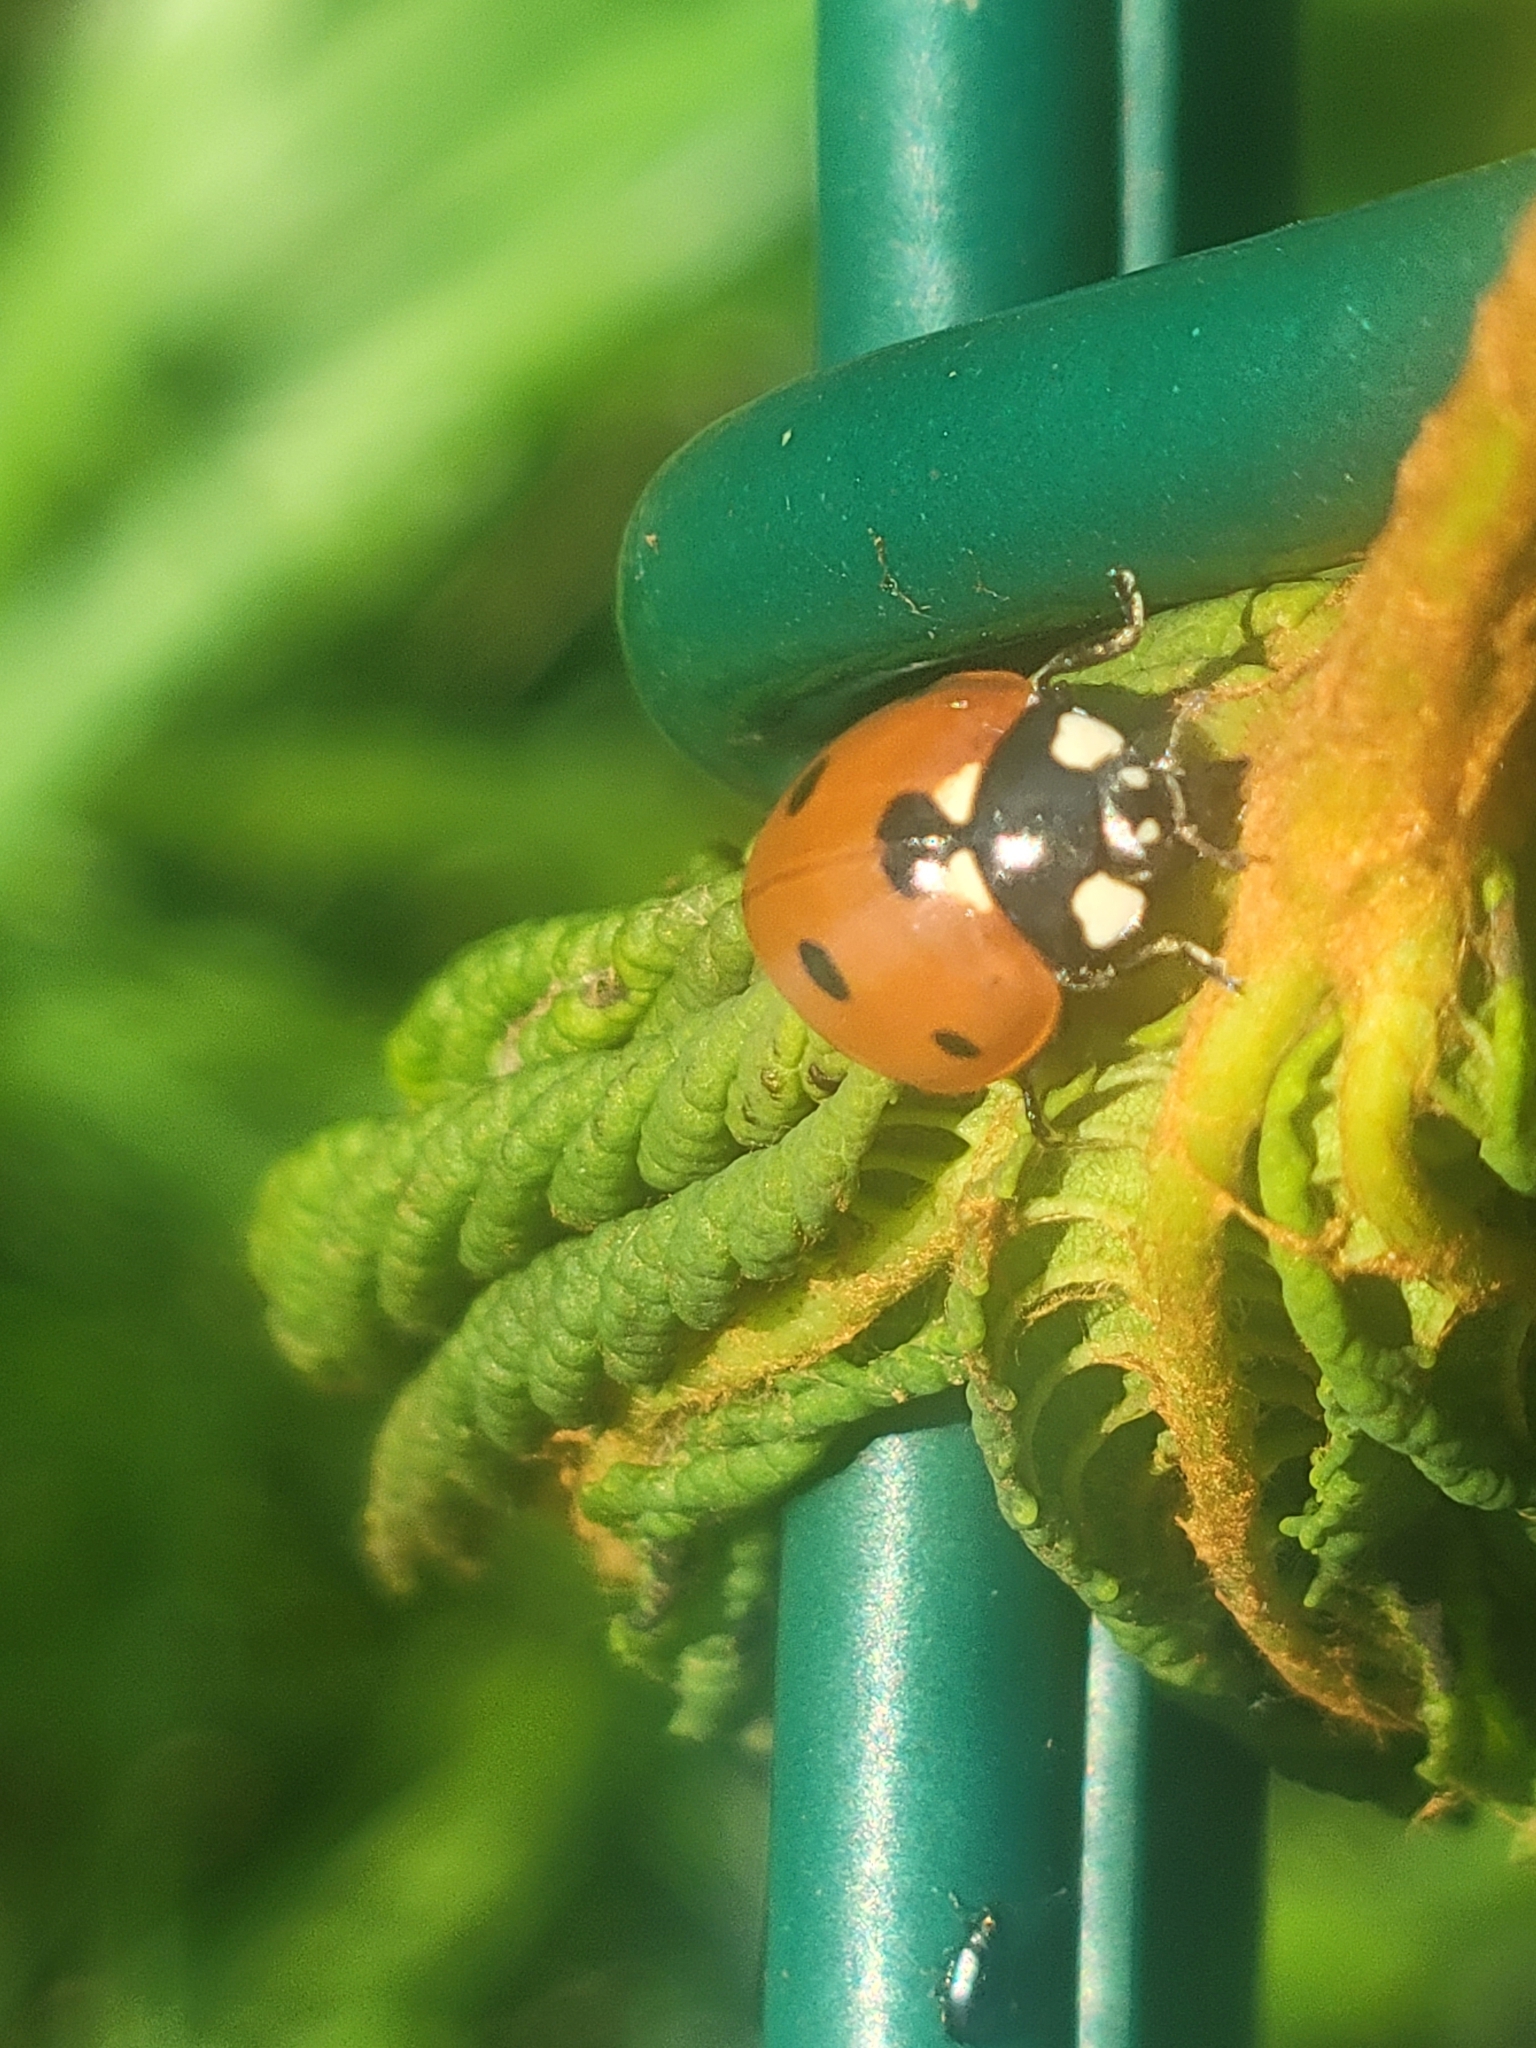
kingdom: Animalia
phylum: Arthropoda
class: Insecta
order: Coleoptera
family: Coccinellidae
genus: Coccinella
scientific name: Coccinella septempunctata
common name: Sevenspotted lady beetle
